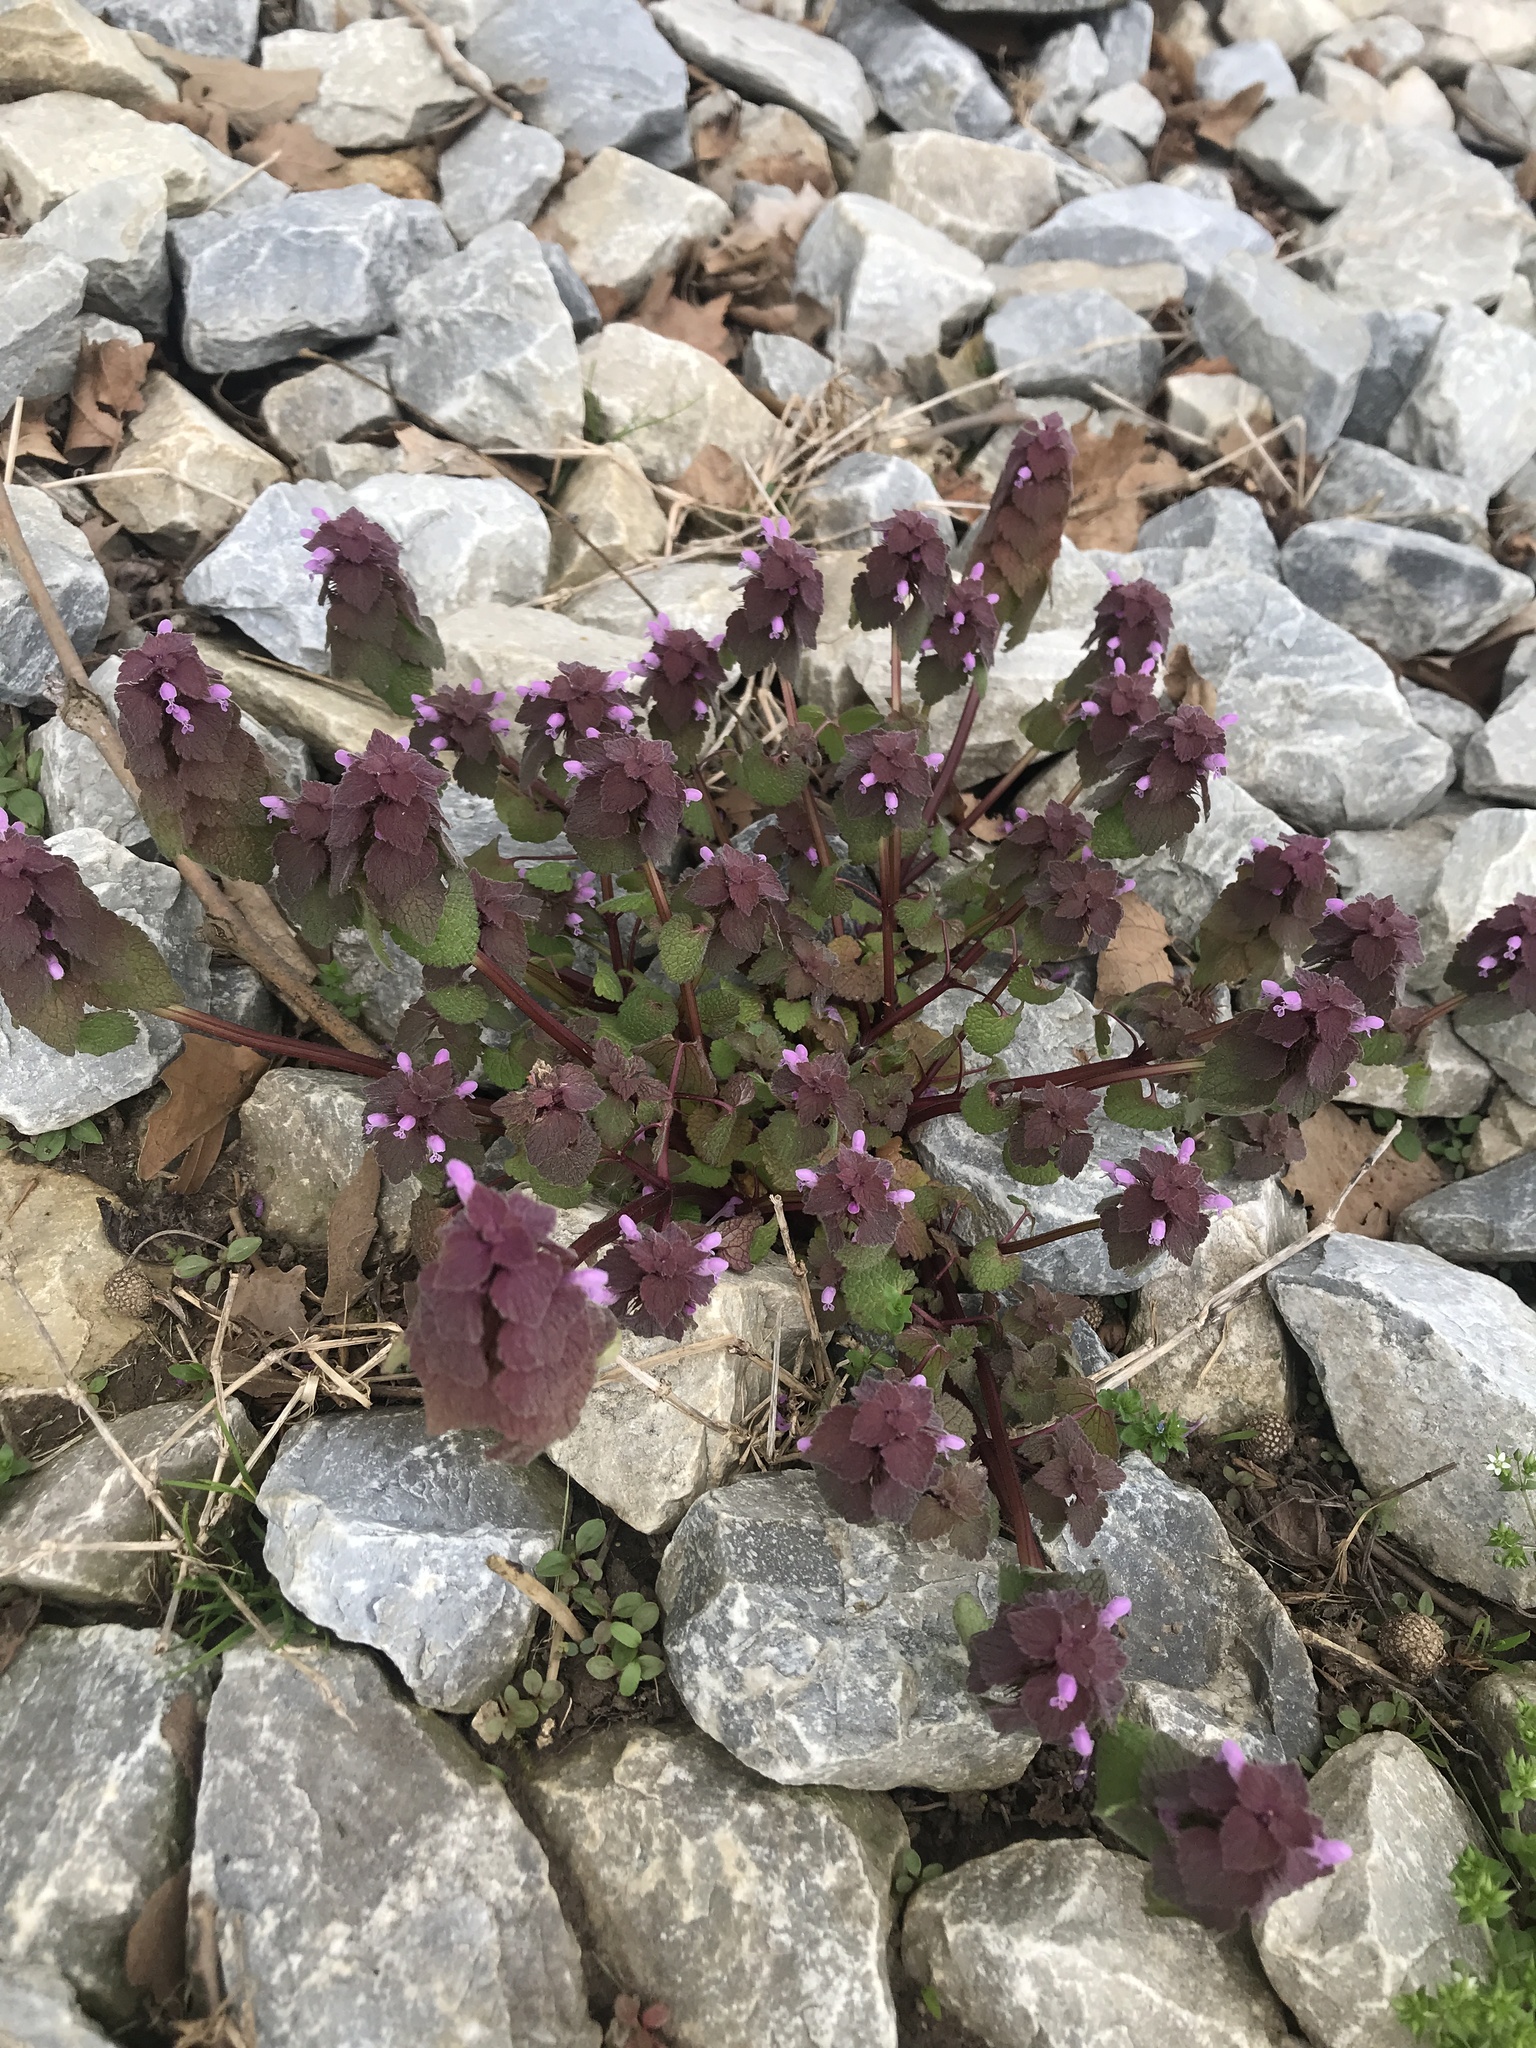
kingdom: Plantae
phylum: Tracheophyta
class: Magnoliopsida
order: Lamiales
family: Lamiaceae
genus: Lamium
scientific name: Lamium purpureum
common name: Red dead-nettle
